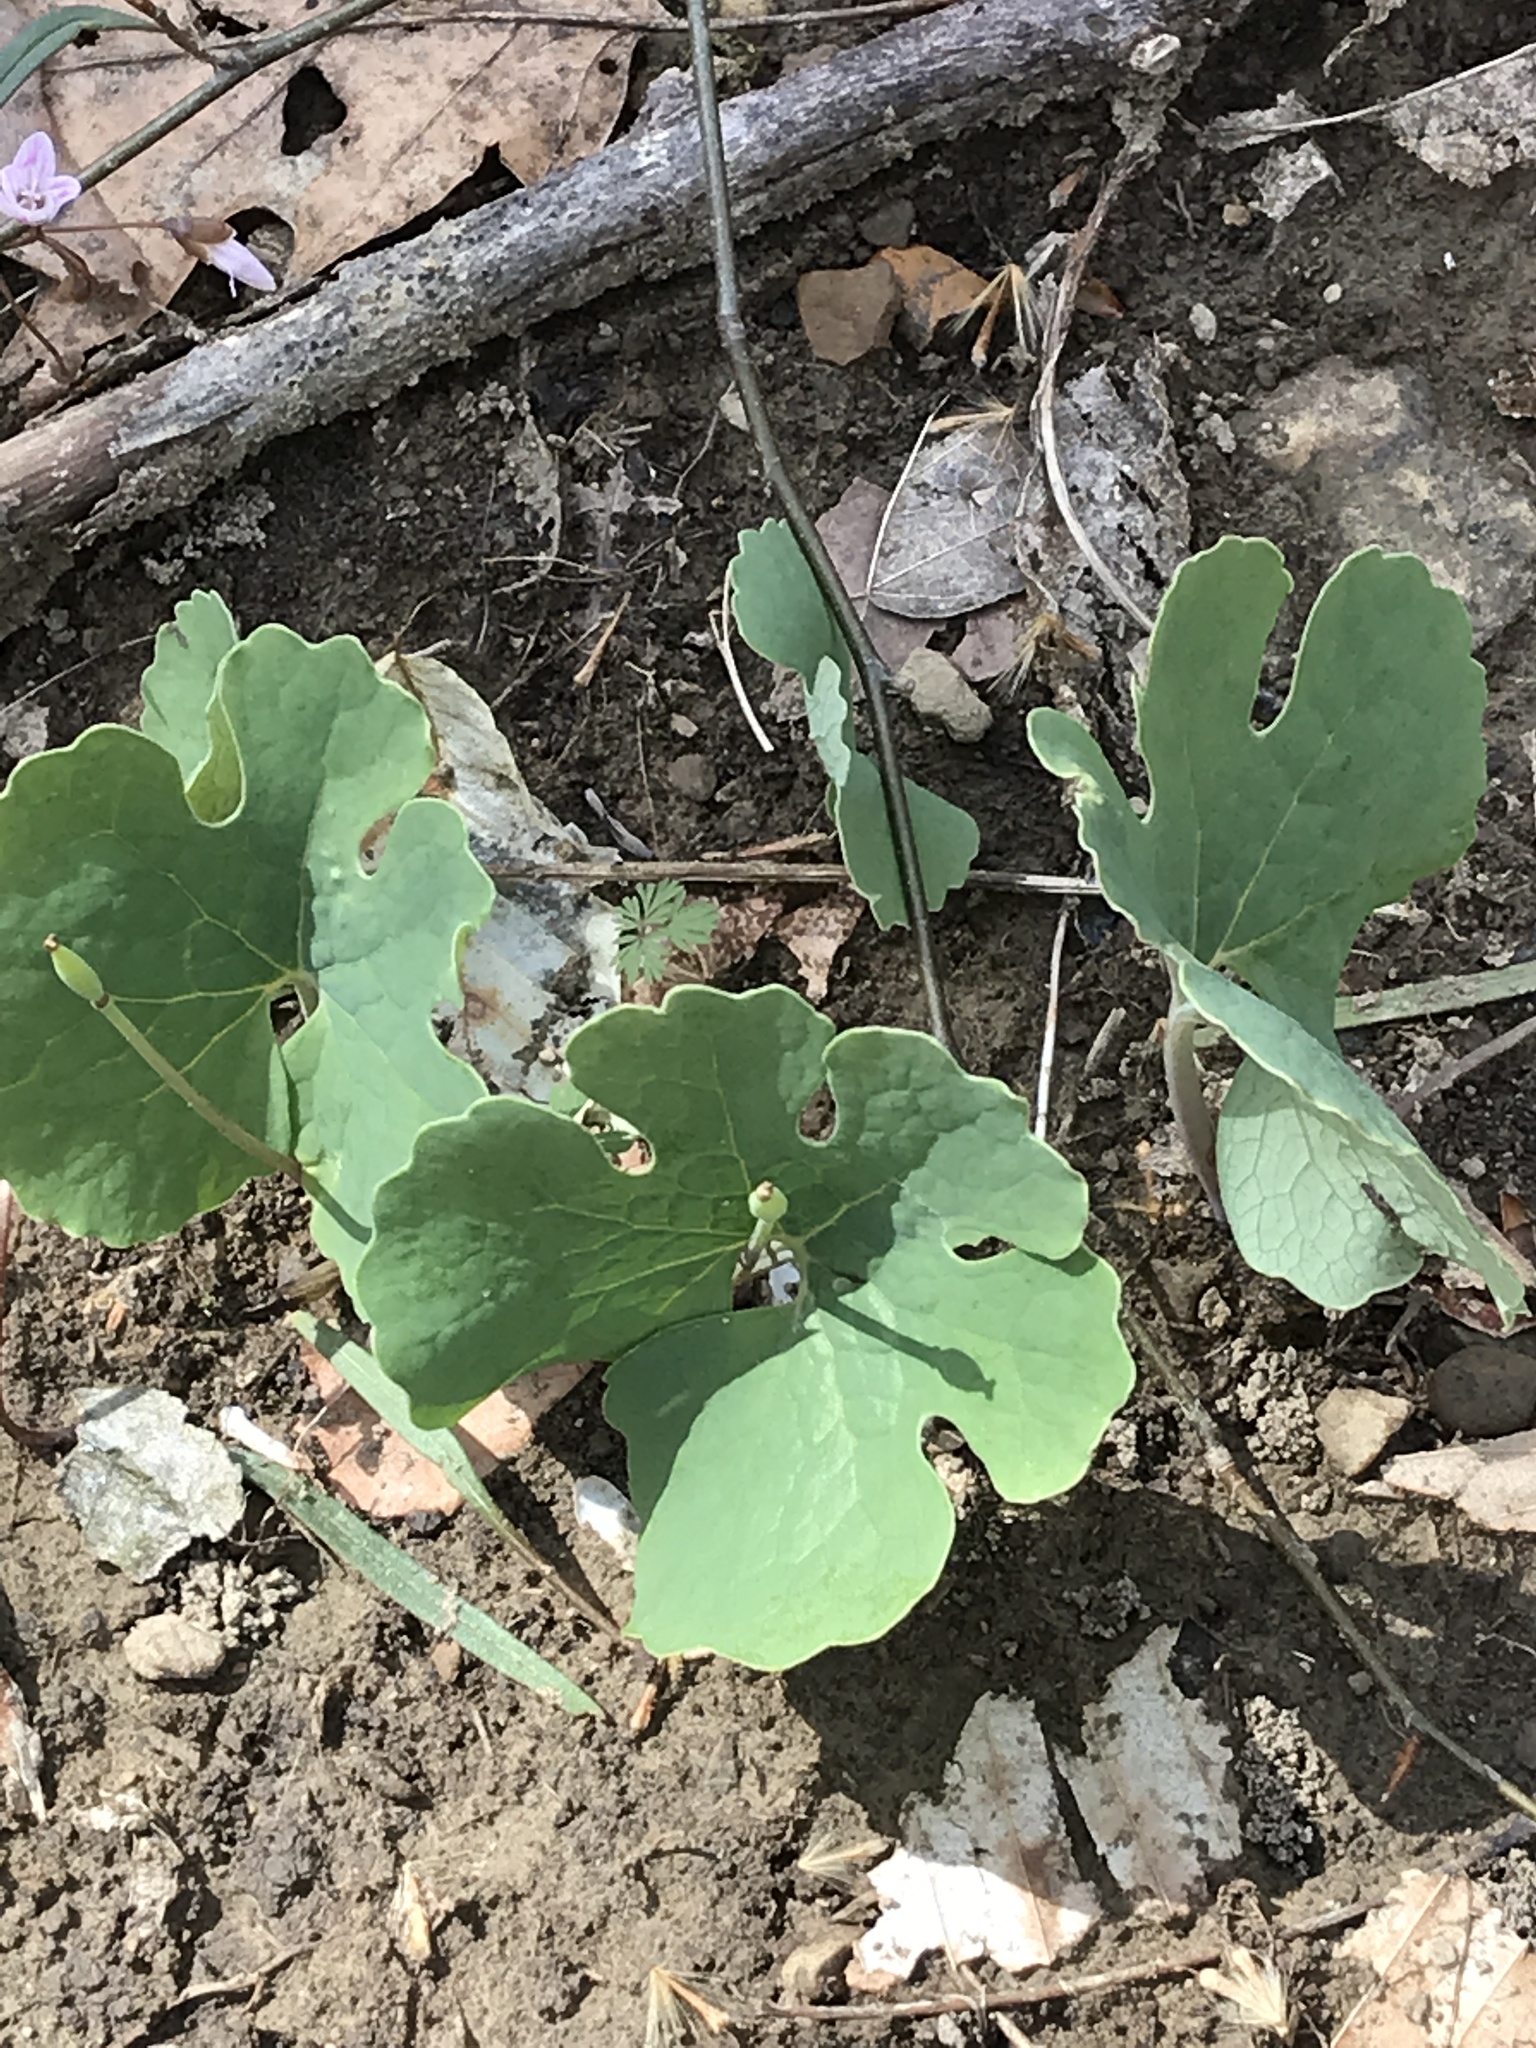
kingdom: Plantae
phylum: Tracheophyta
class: Magnoliopsida
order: Ranunculales
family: Papaveraceae
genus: Sanguinaria
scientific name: Sanguinaria canadensis
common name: Bloodroot
